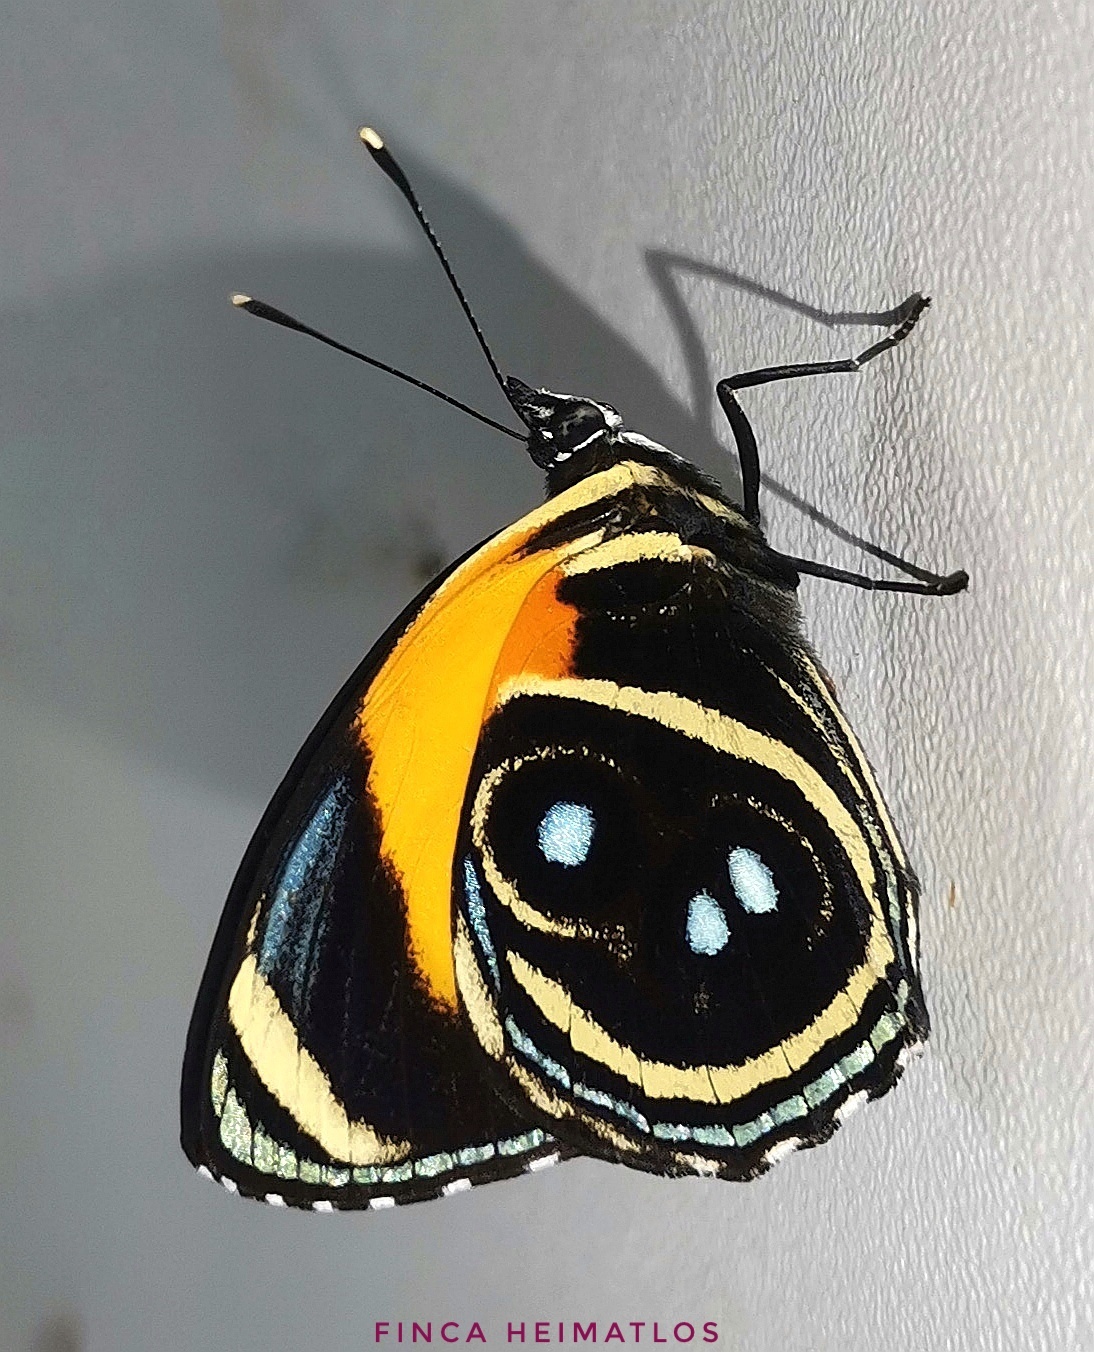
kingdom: Animalia
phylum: Arthropoda
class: Insecta
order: Lepidoptera
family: Nymphalidae
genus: Catagramma
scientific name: Catagramma eunomia
